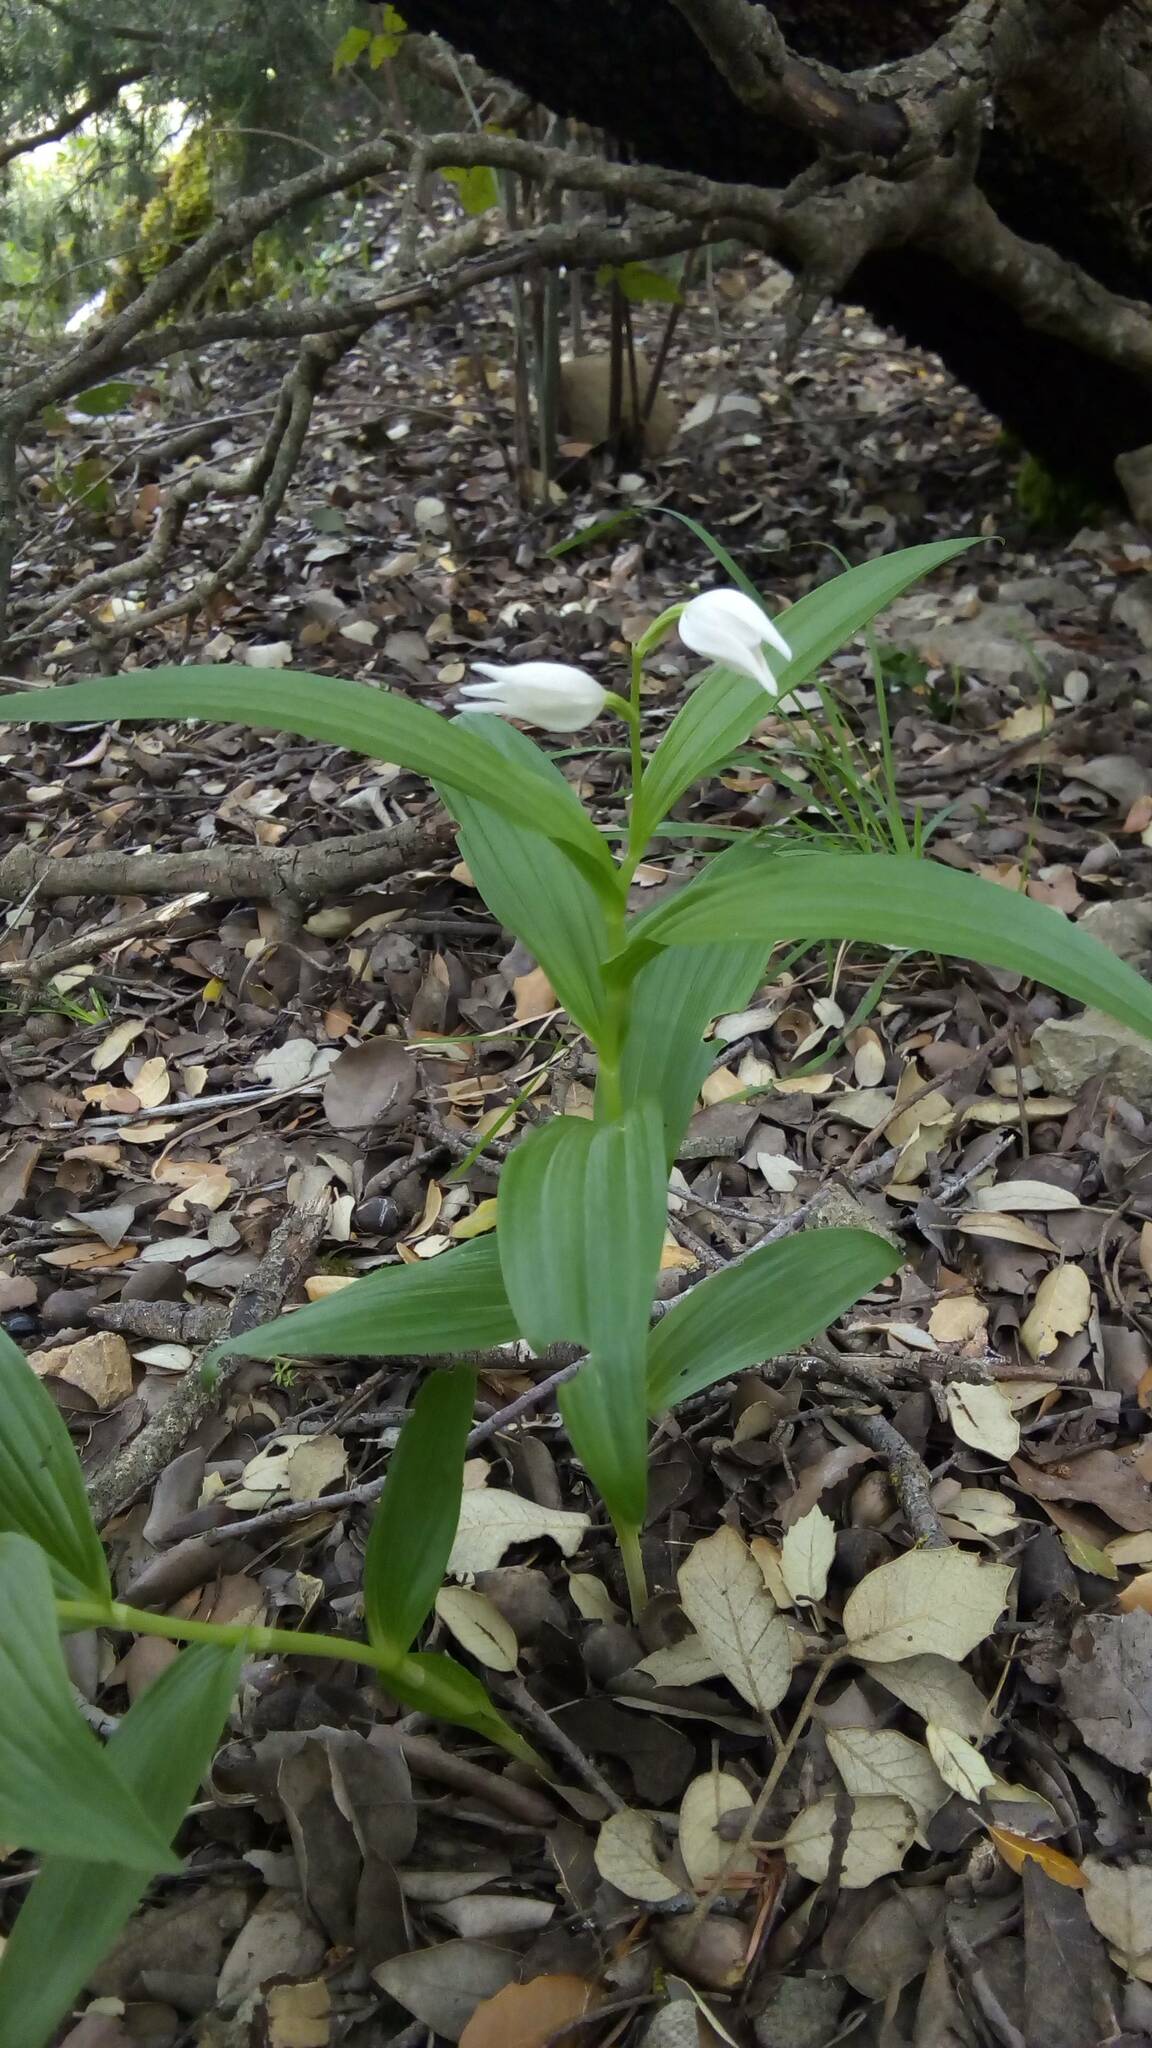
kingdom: Plantae
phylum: Tracheophyta
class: Liliopsida
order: Asparagales
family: Orchidaceae
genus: Cephalanthera
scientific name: Cephalanthera longifolia
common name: Narrow-leaved helleborine
